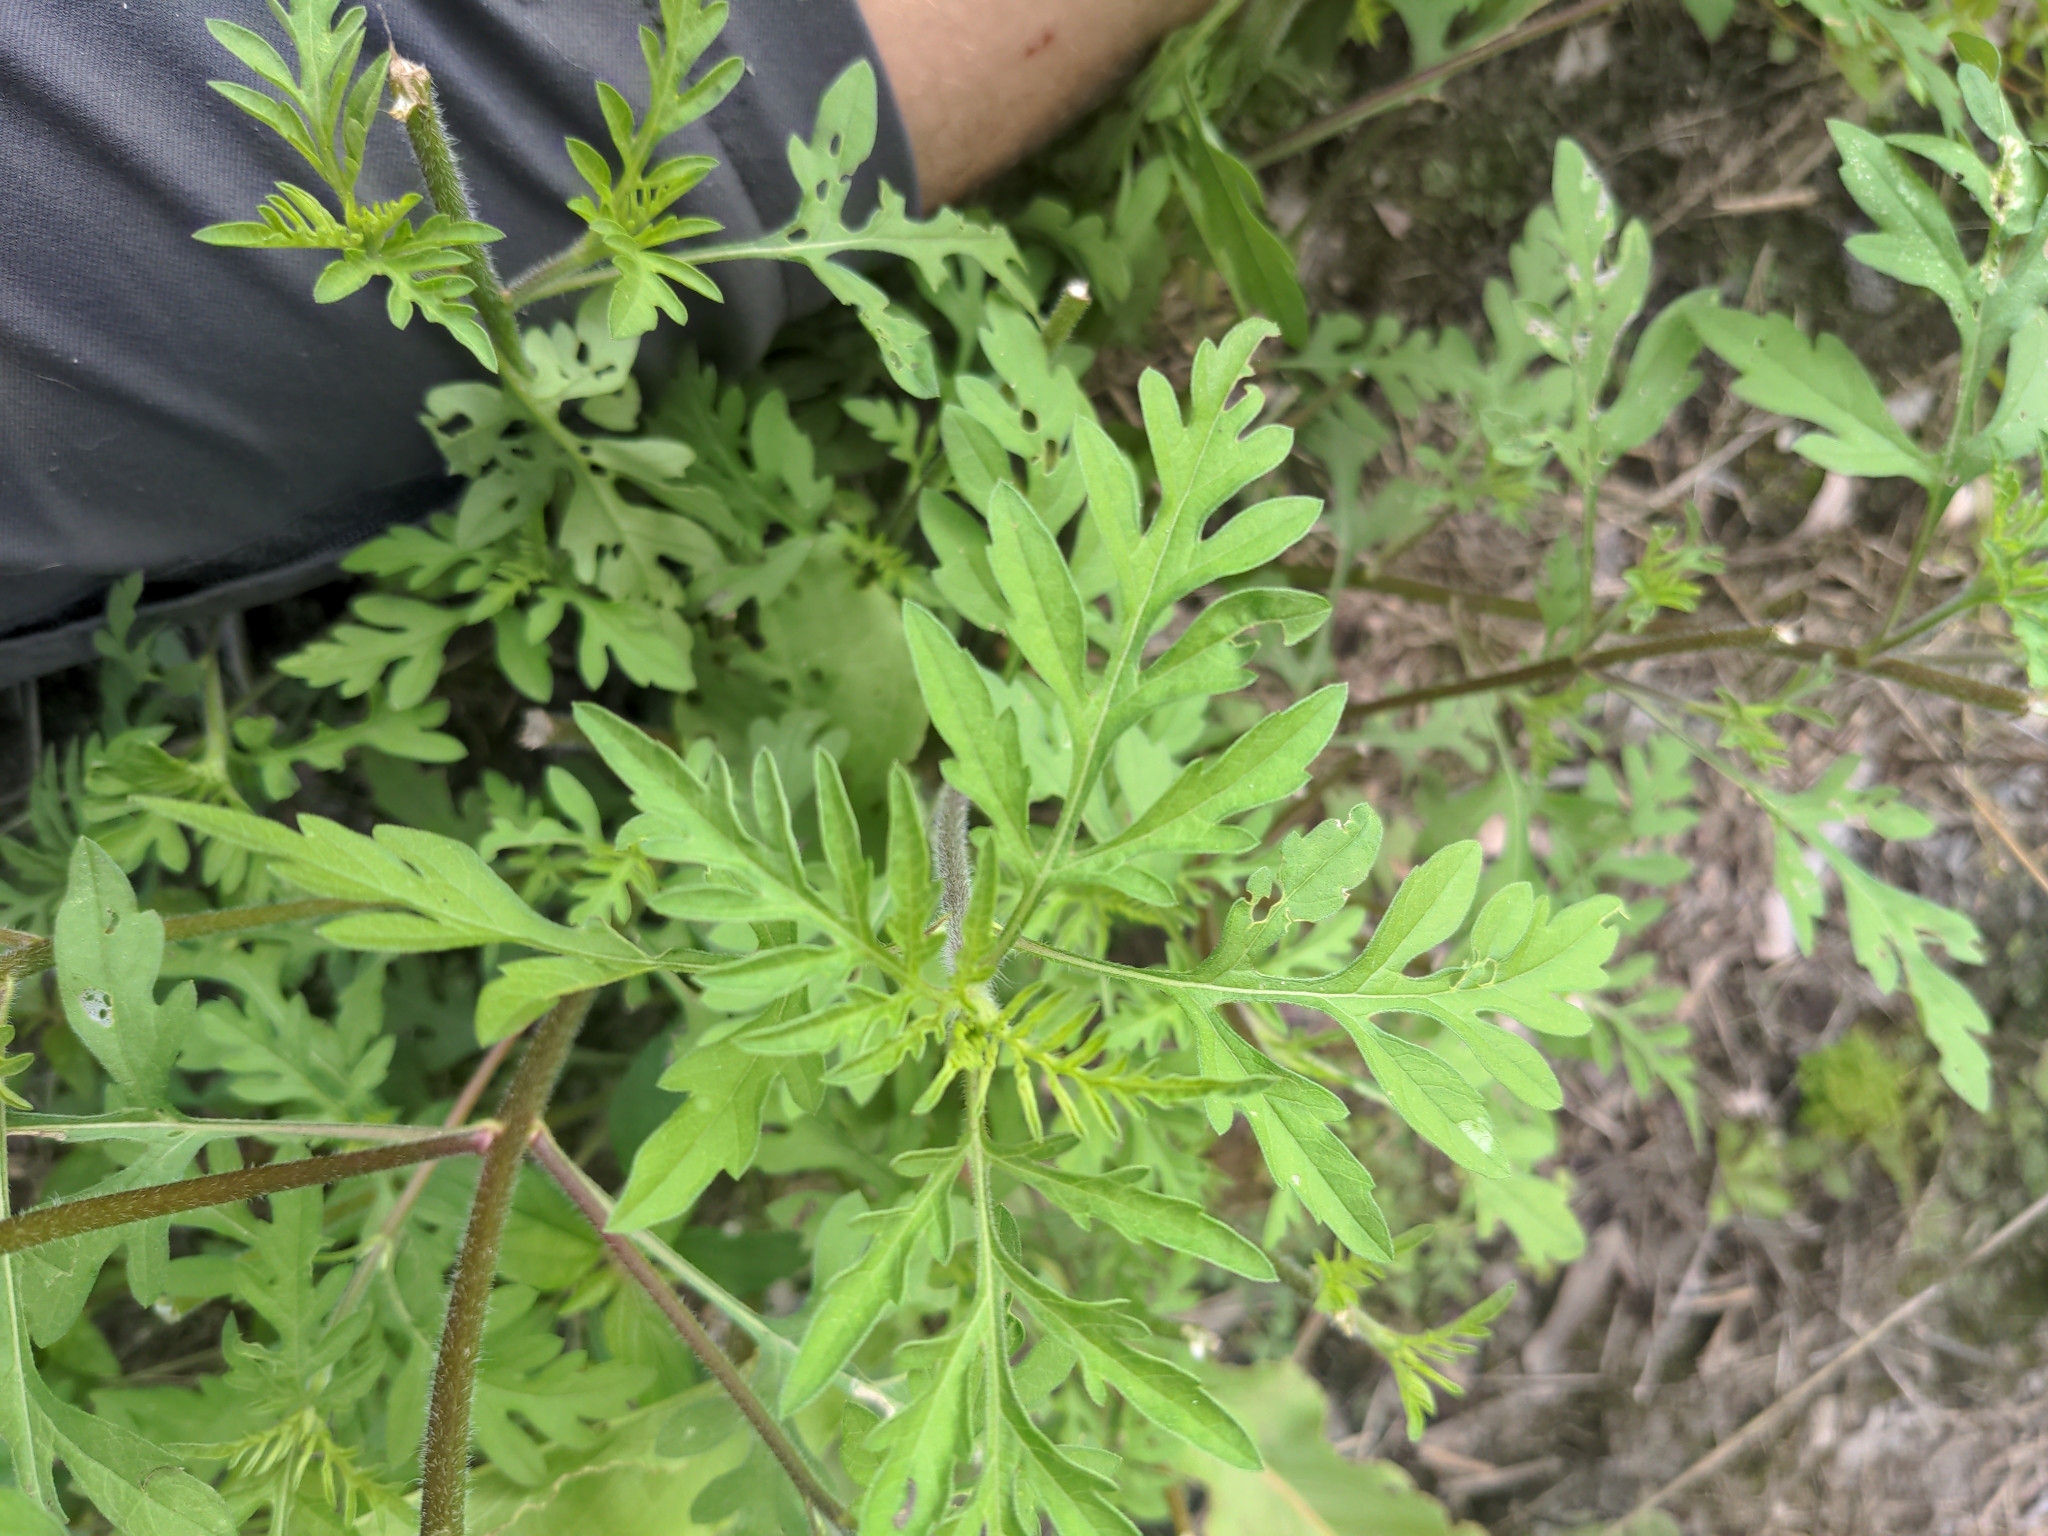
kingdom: Plantae
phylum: Tracheophyta
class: Magnoliopsida
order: Asterales
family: Asteraceae
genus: Ambrosia
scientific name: Ambrosia artemisiifolia
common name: Annual ragweed
